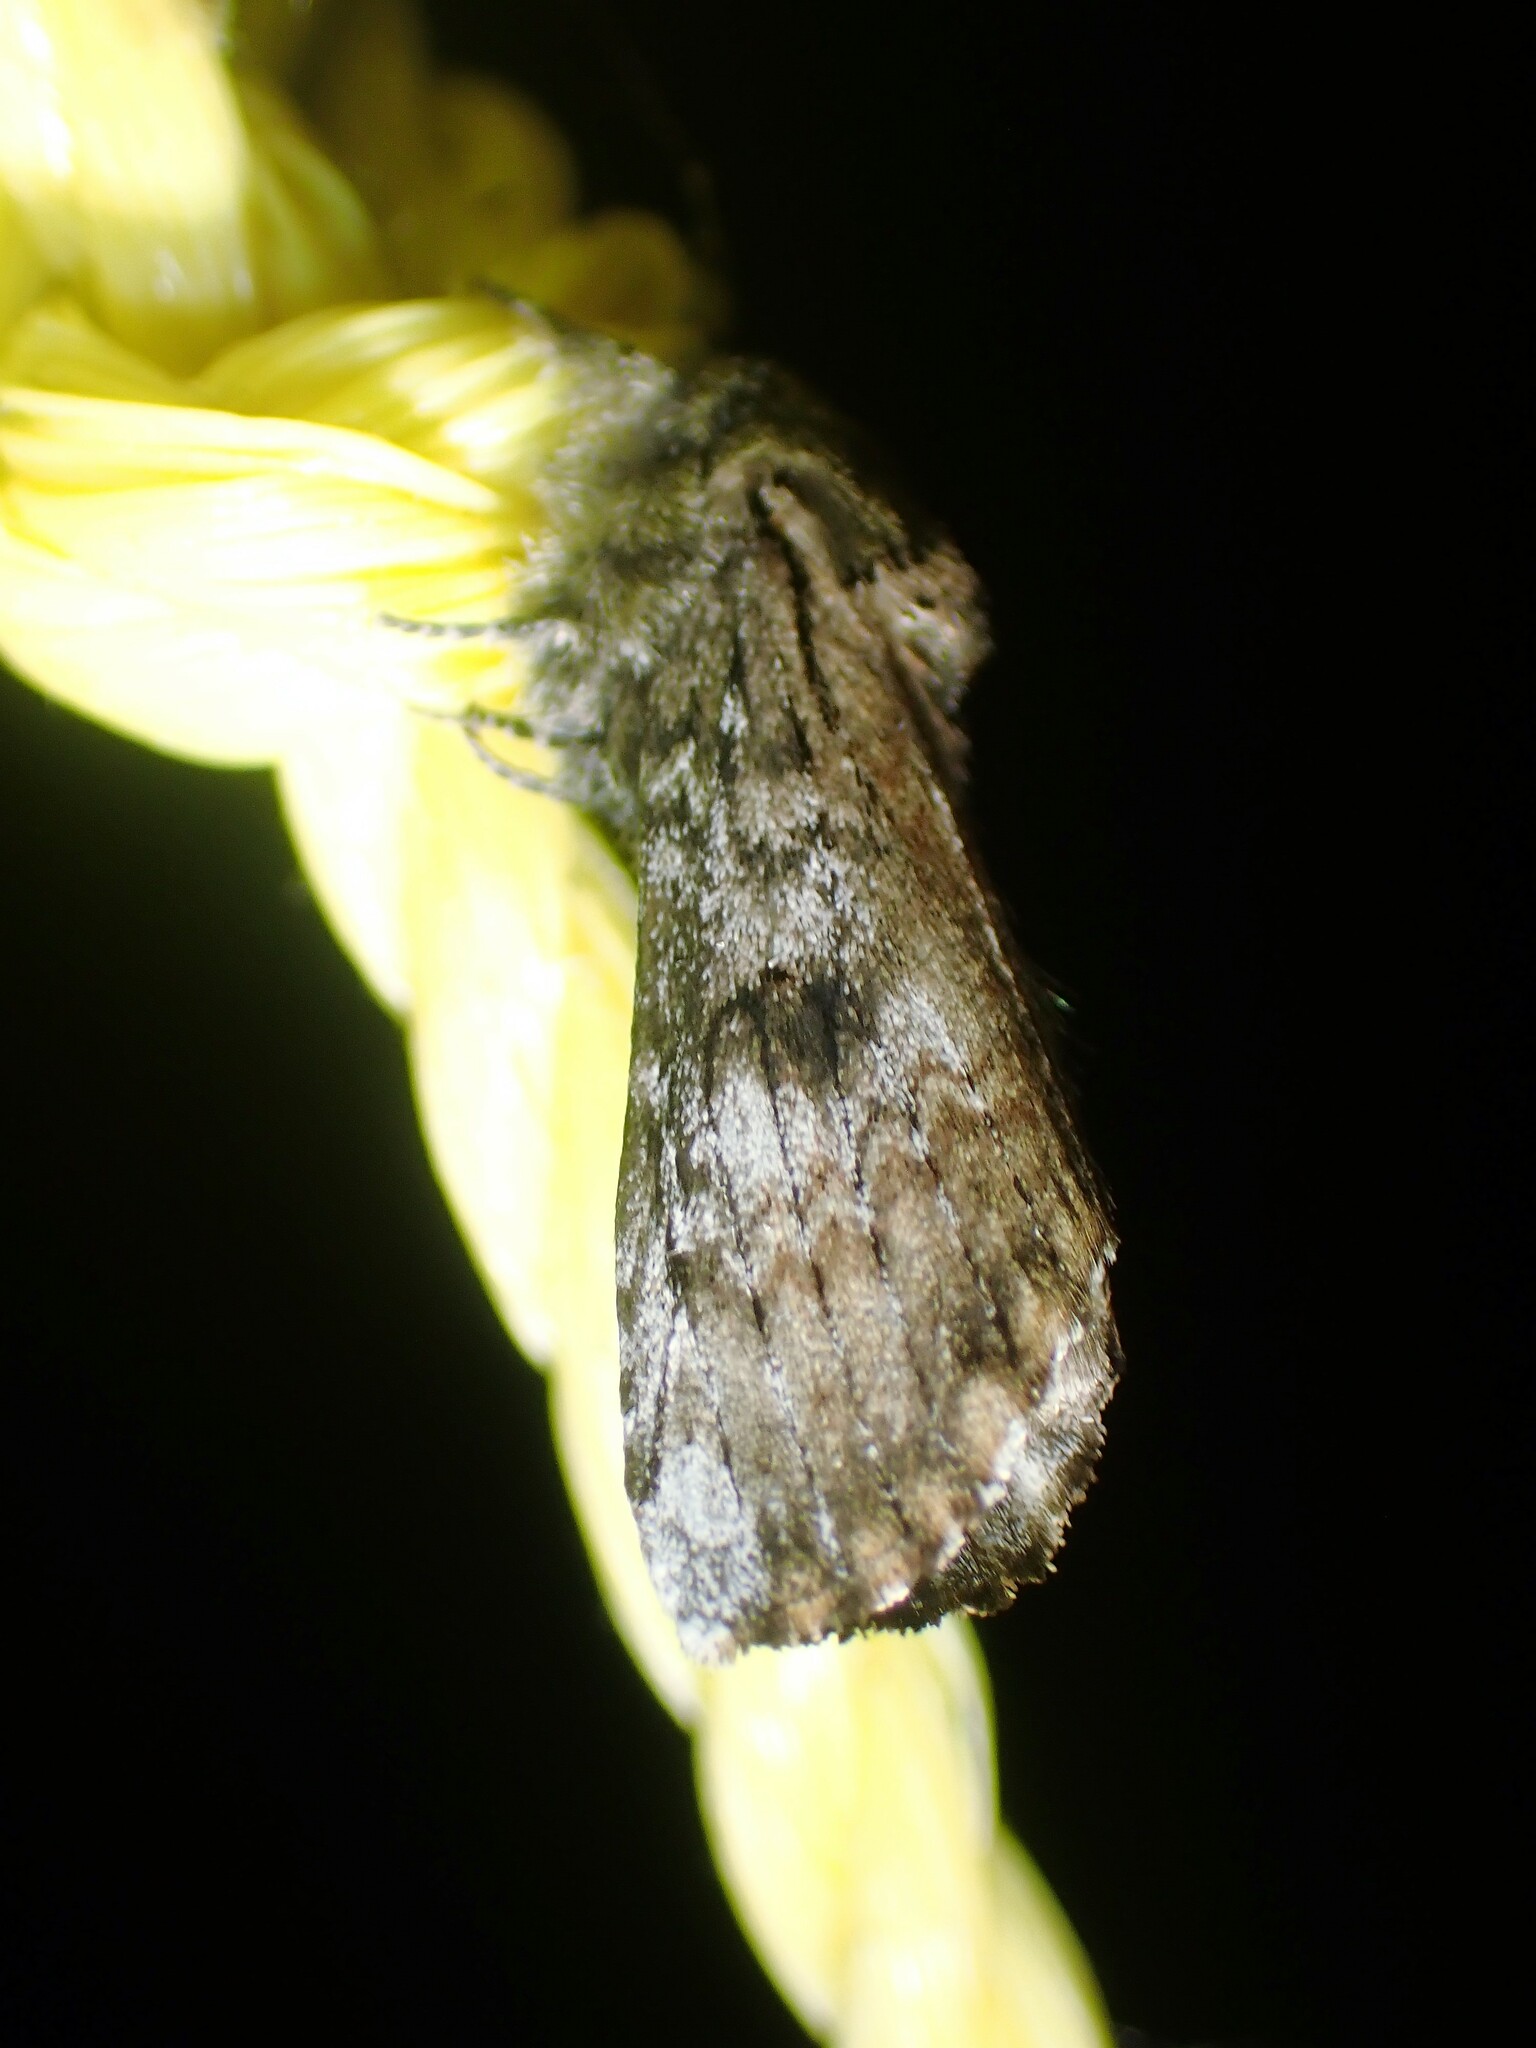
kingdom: Animalia
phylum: Arthropoda
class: Insecta
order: Lepidoptera
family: Notodontidae
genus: Schizura
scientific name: Schizura
